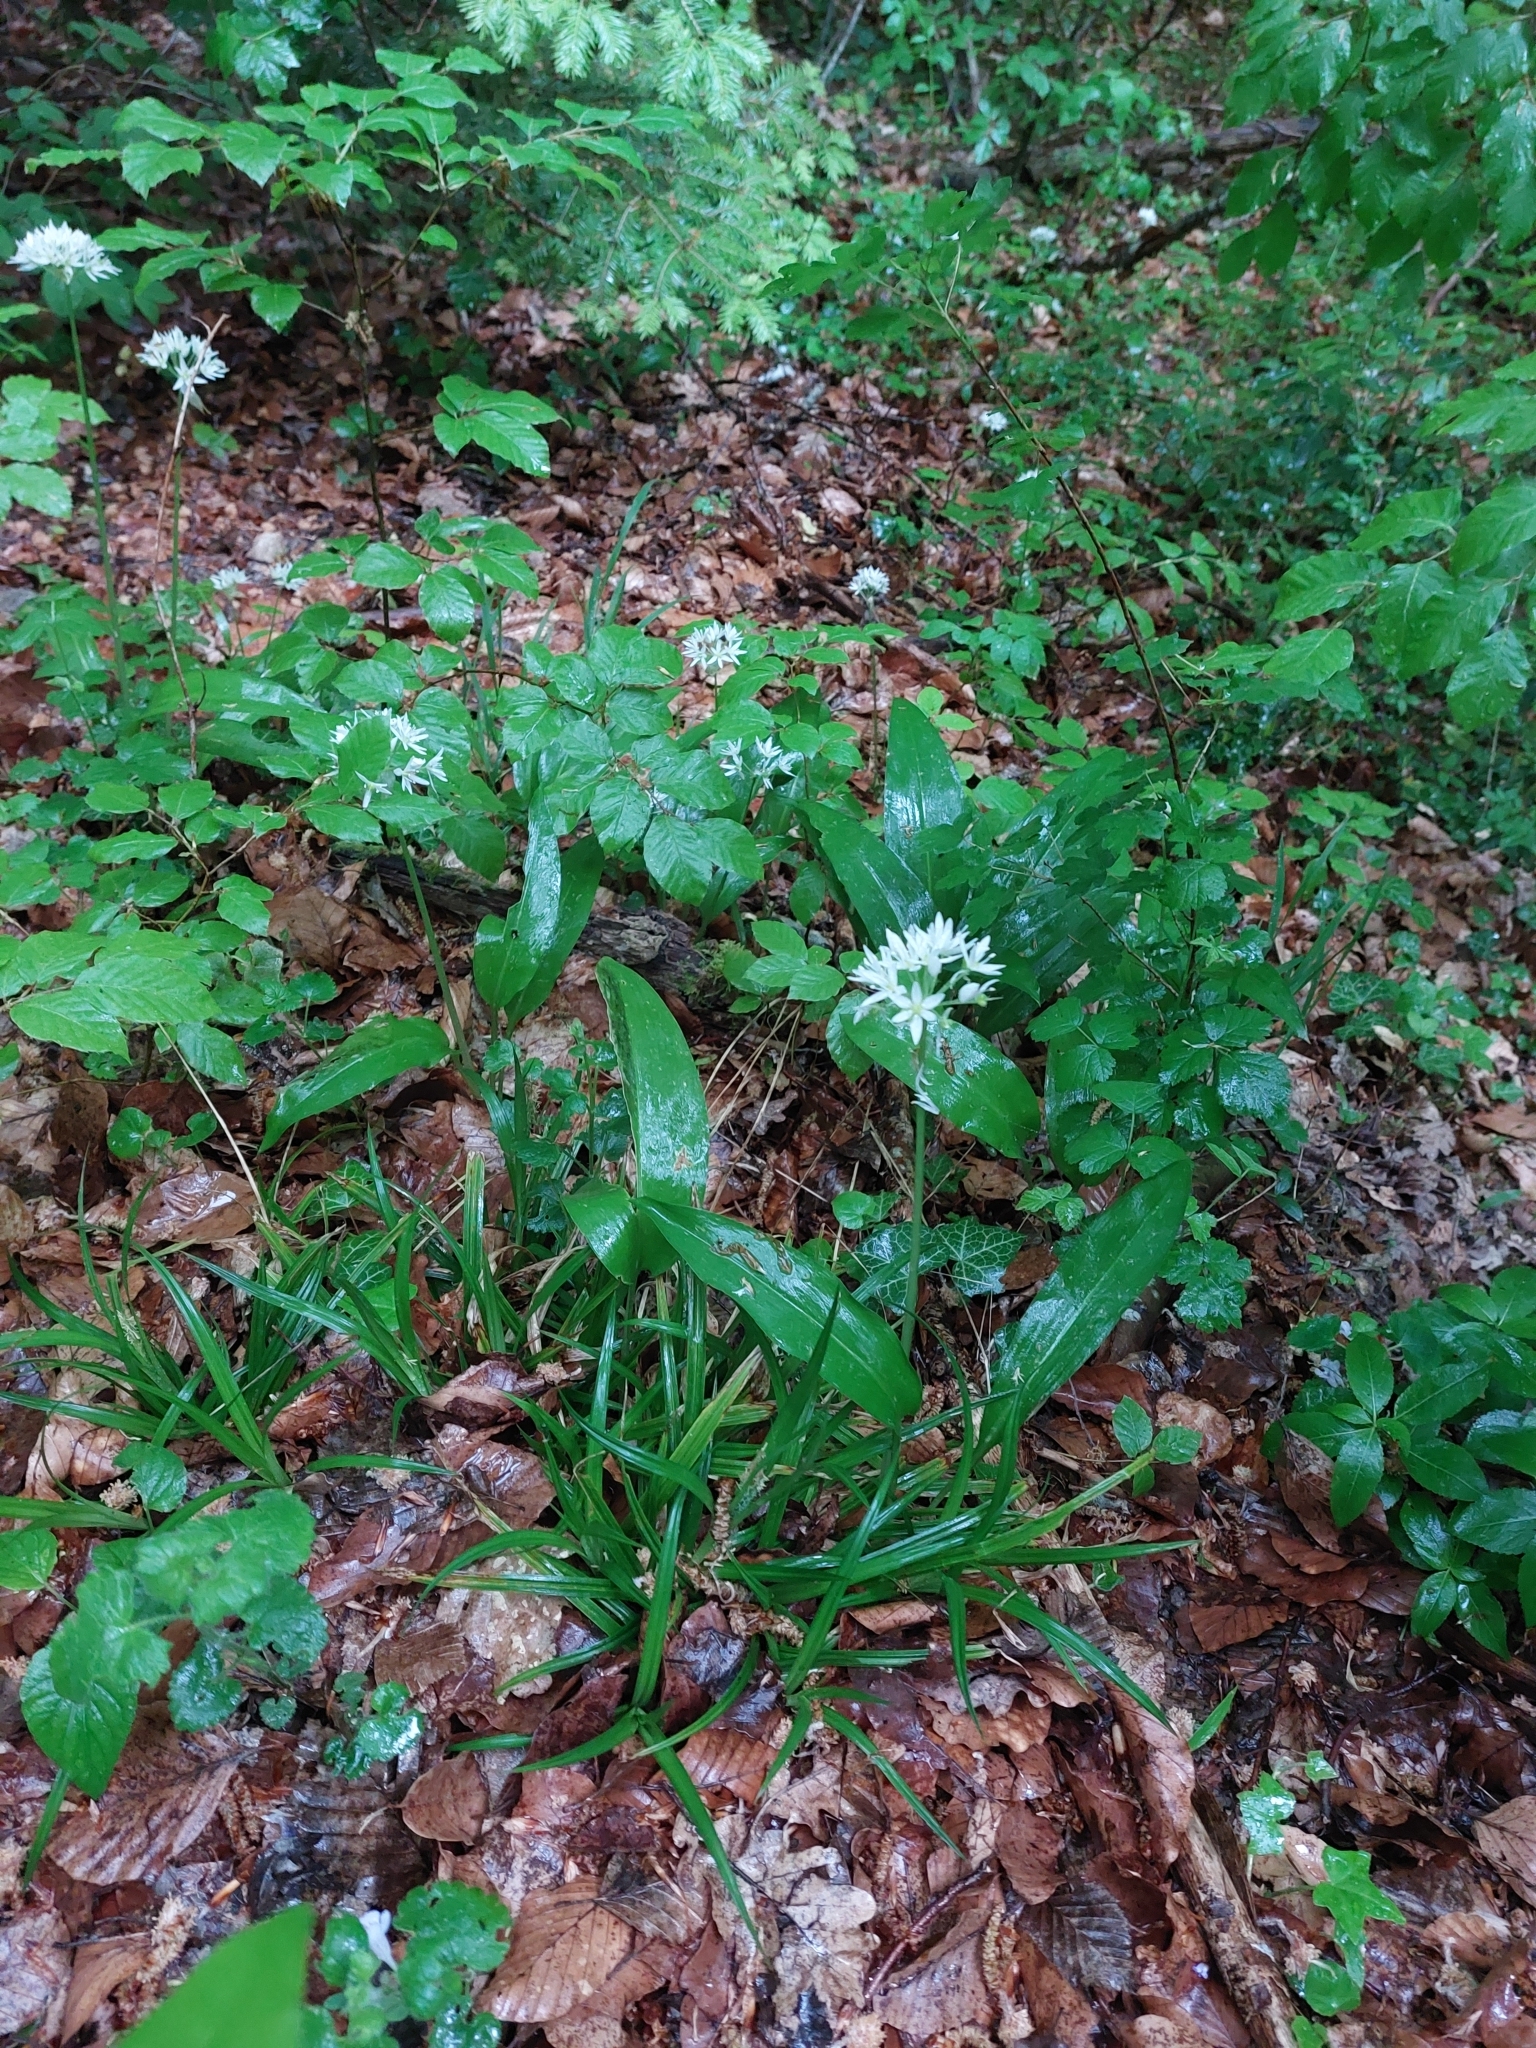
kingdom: Plantae
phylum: Tracheophyta
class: Liliopsida
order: Asparagales
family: Amaryllidaceae
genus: Allium
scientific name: Allium ursinum
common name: Ramsons
